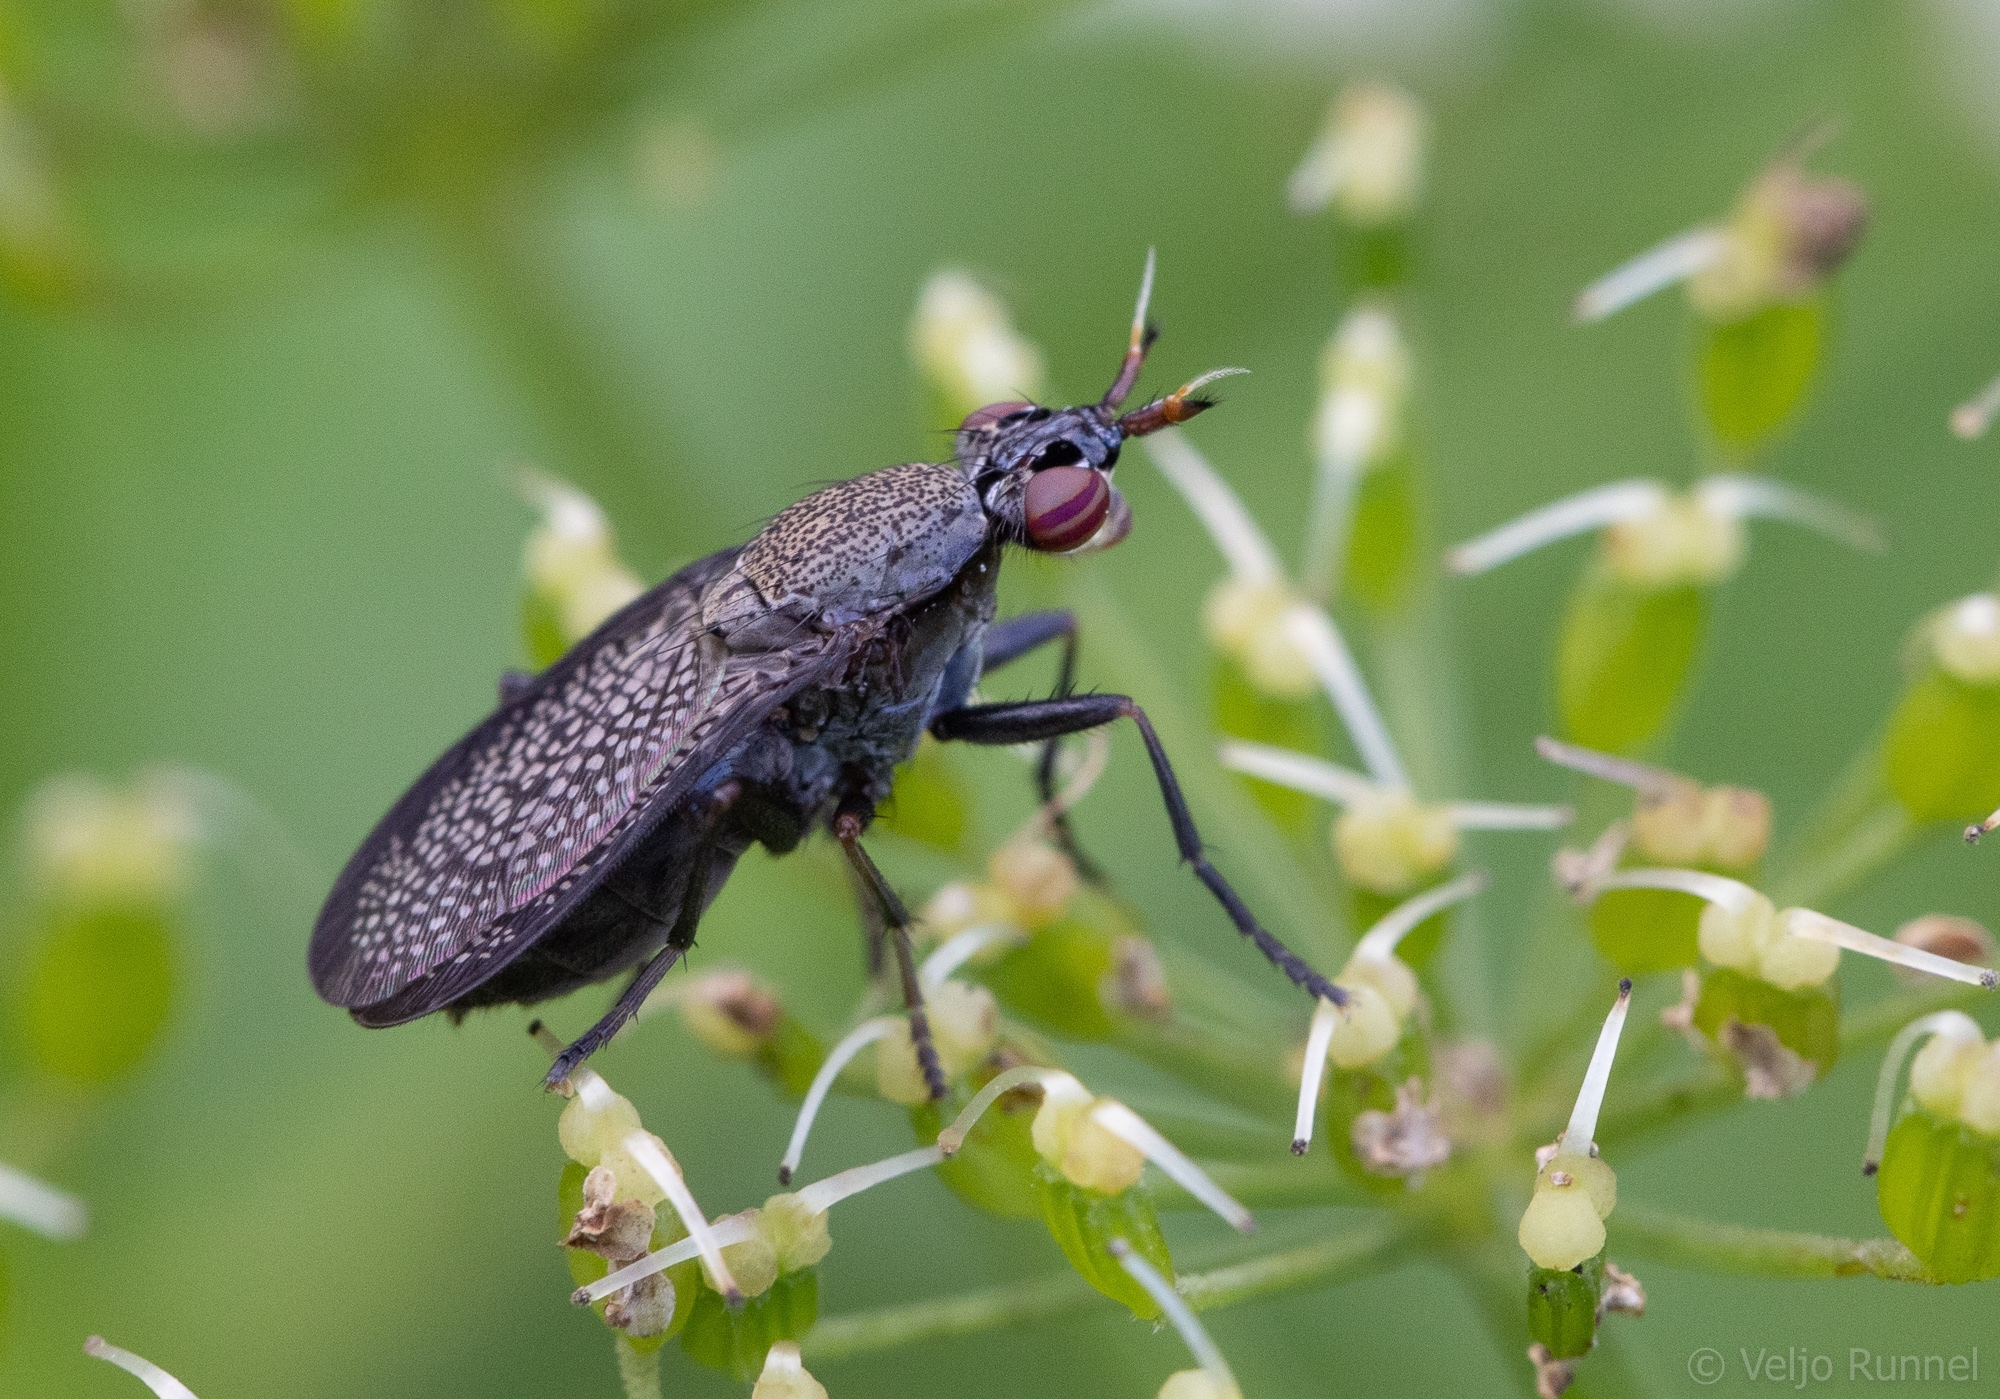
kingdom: Animalia
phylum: Arthropoda
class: Insecta
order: Diptera
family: Sciomyzidae
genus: Coremacera
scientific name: Coremacera marginata
